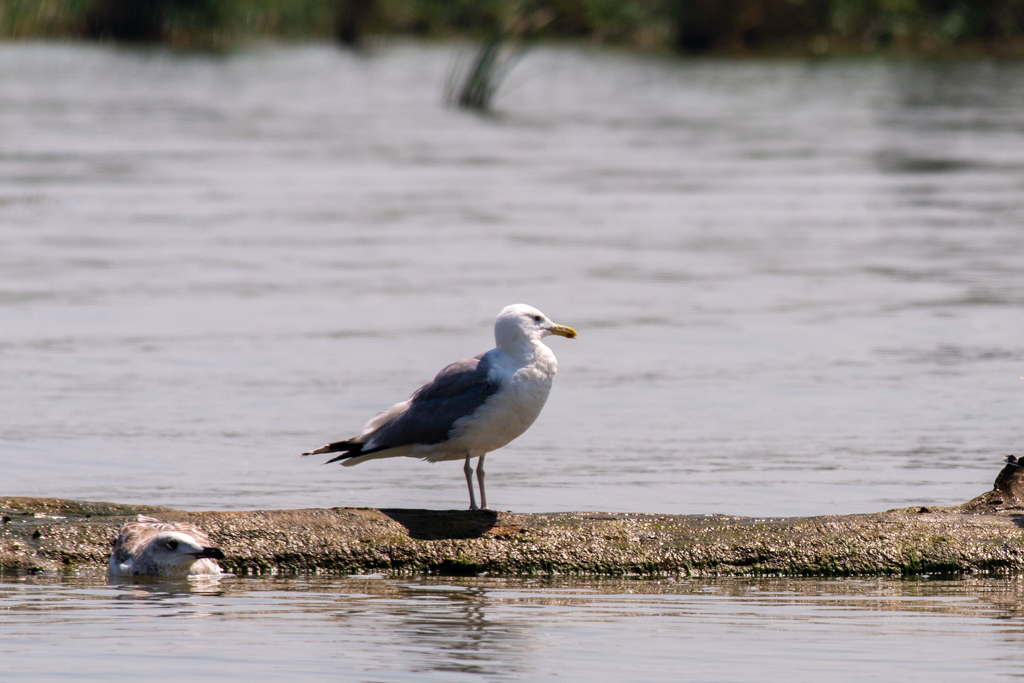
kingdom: Animalia
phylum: Chordata
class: Aves
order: Charadriiformes
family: Laridae
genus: Larus
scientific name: Larus cachinnans
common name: Caspian gull
